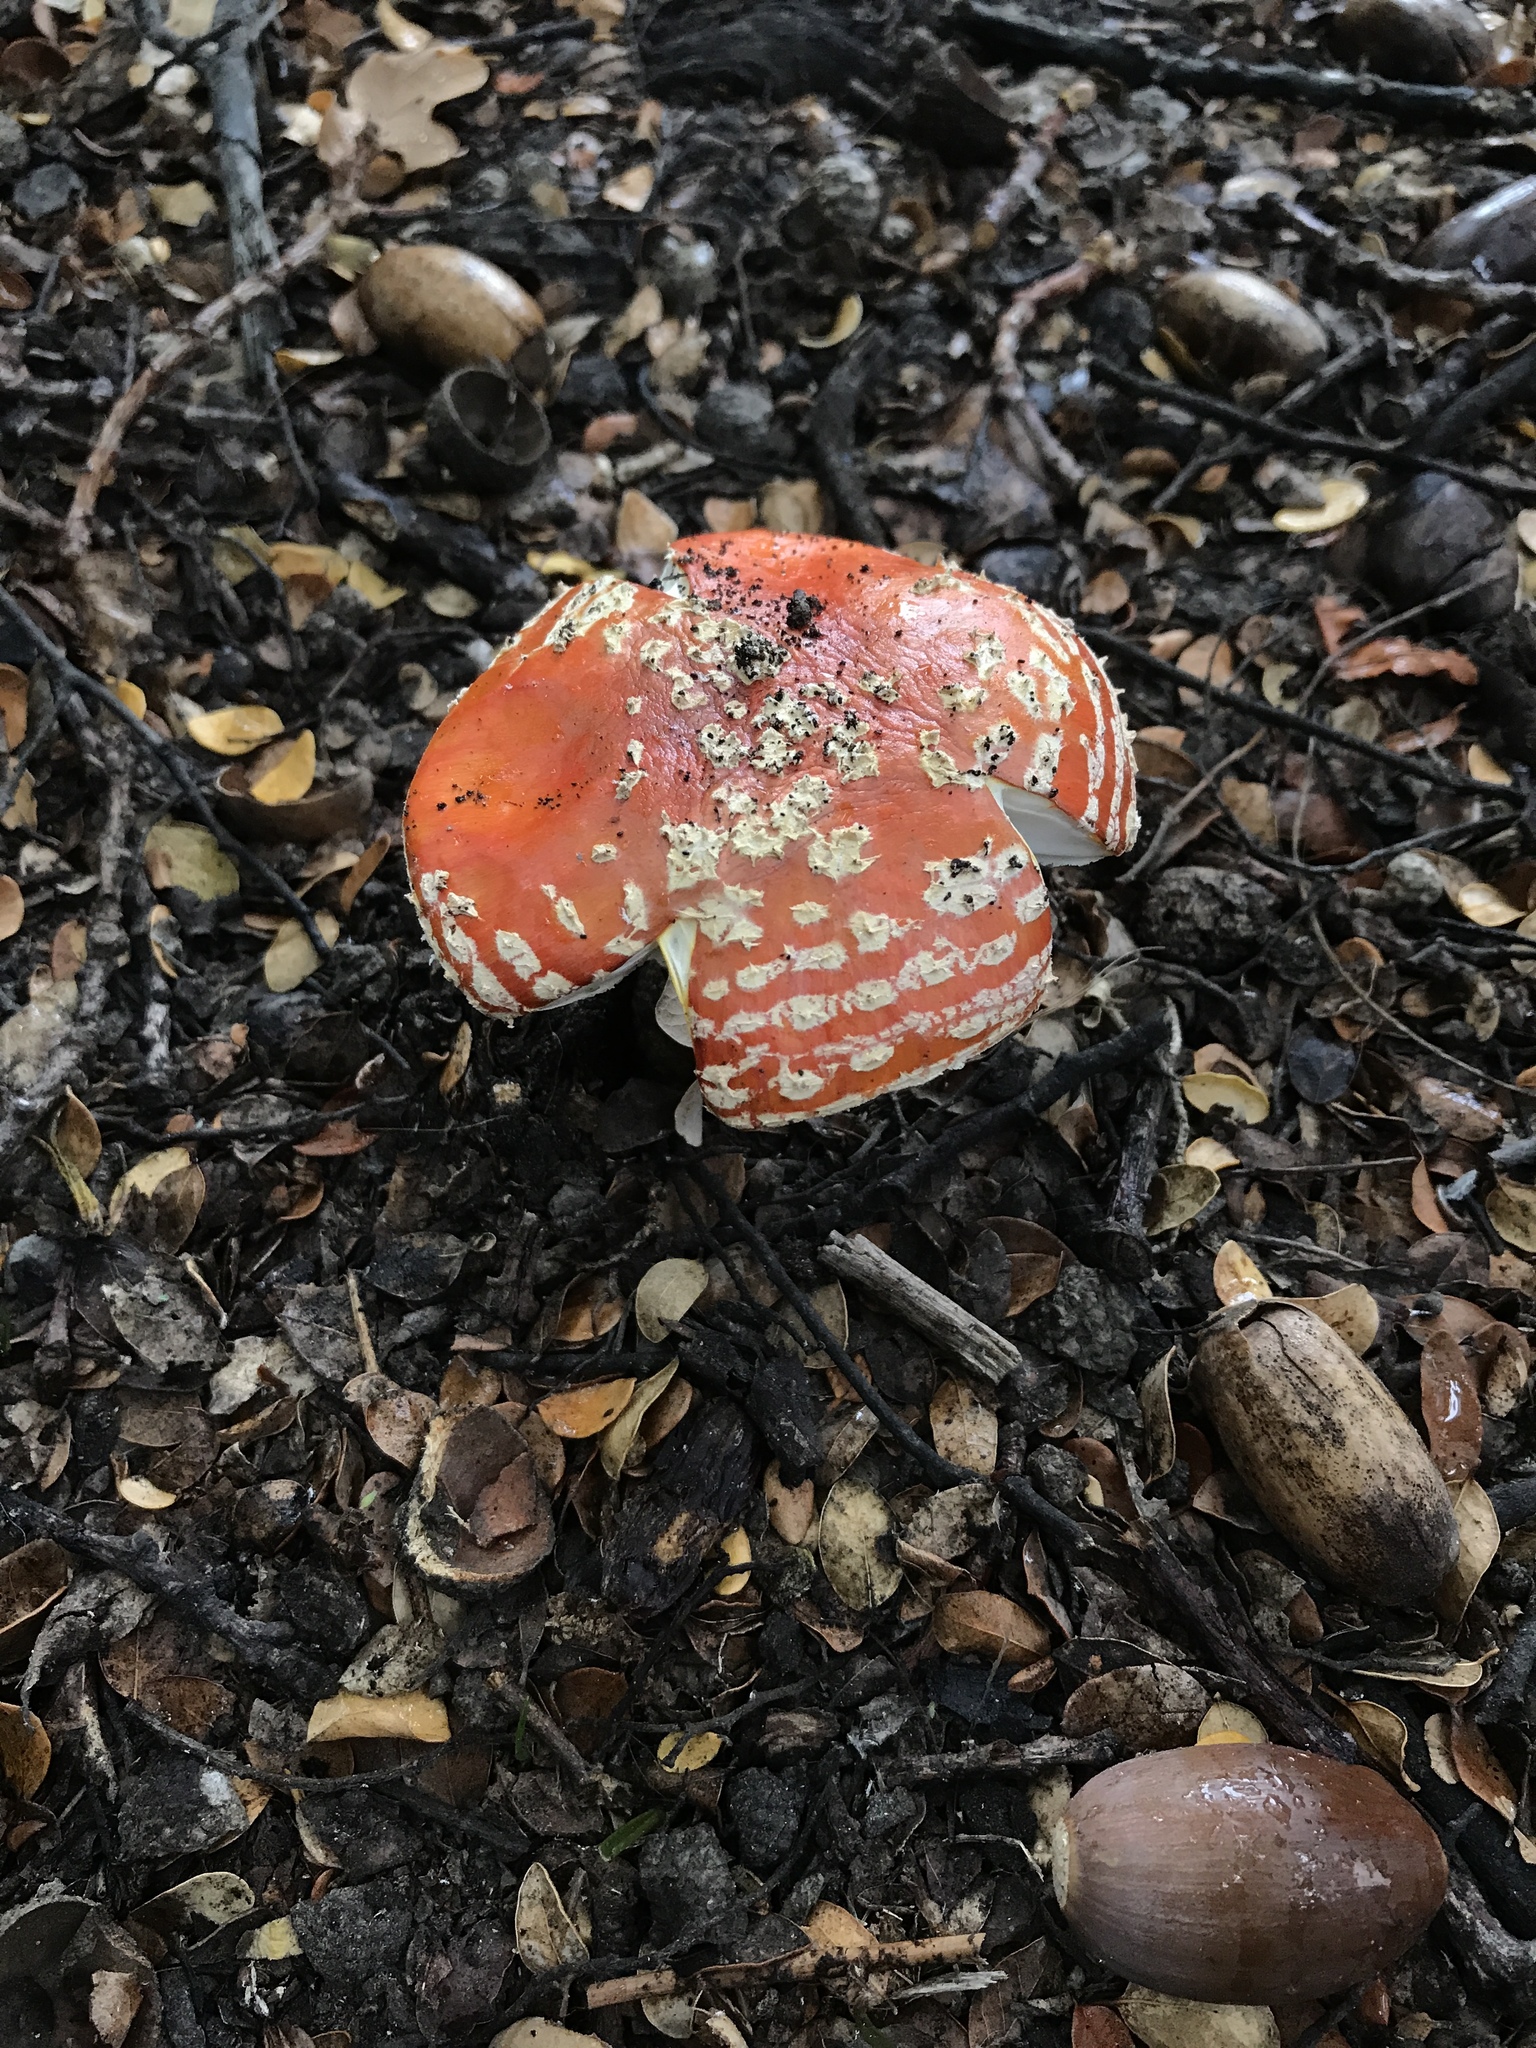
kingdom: Fungi
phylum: Basidiomycota
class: Agaricomycetes
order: Agaricales
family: Amanitaceae
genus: Amanita
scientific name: Amanita muscaria
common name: Fly agaric
